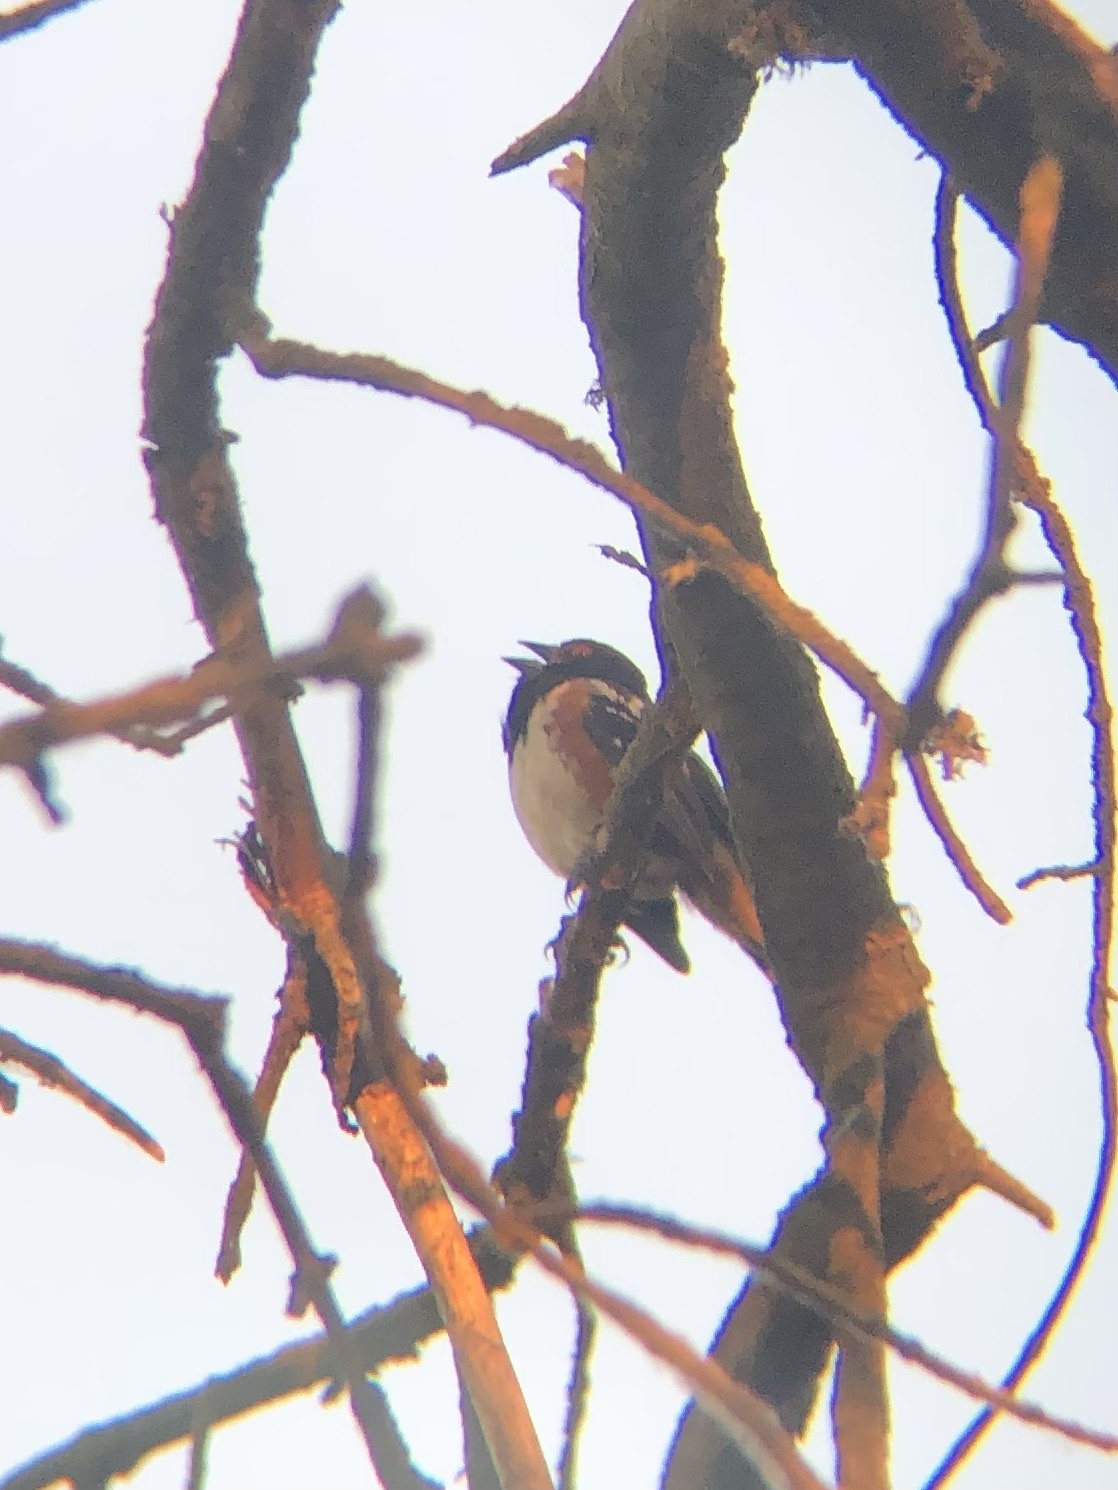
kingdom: Animalia
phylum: Chordata
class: Aves
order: Passeriformes
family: Passerellidae
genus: Pipilo
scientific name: Pipilo maculatus
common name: Spotted towhee
